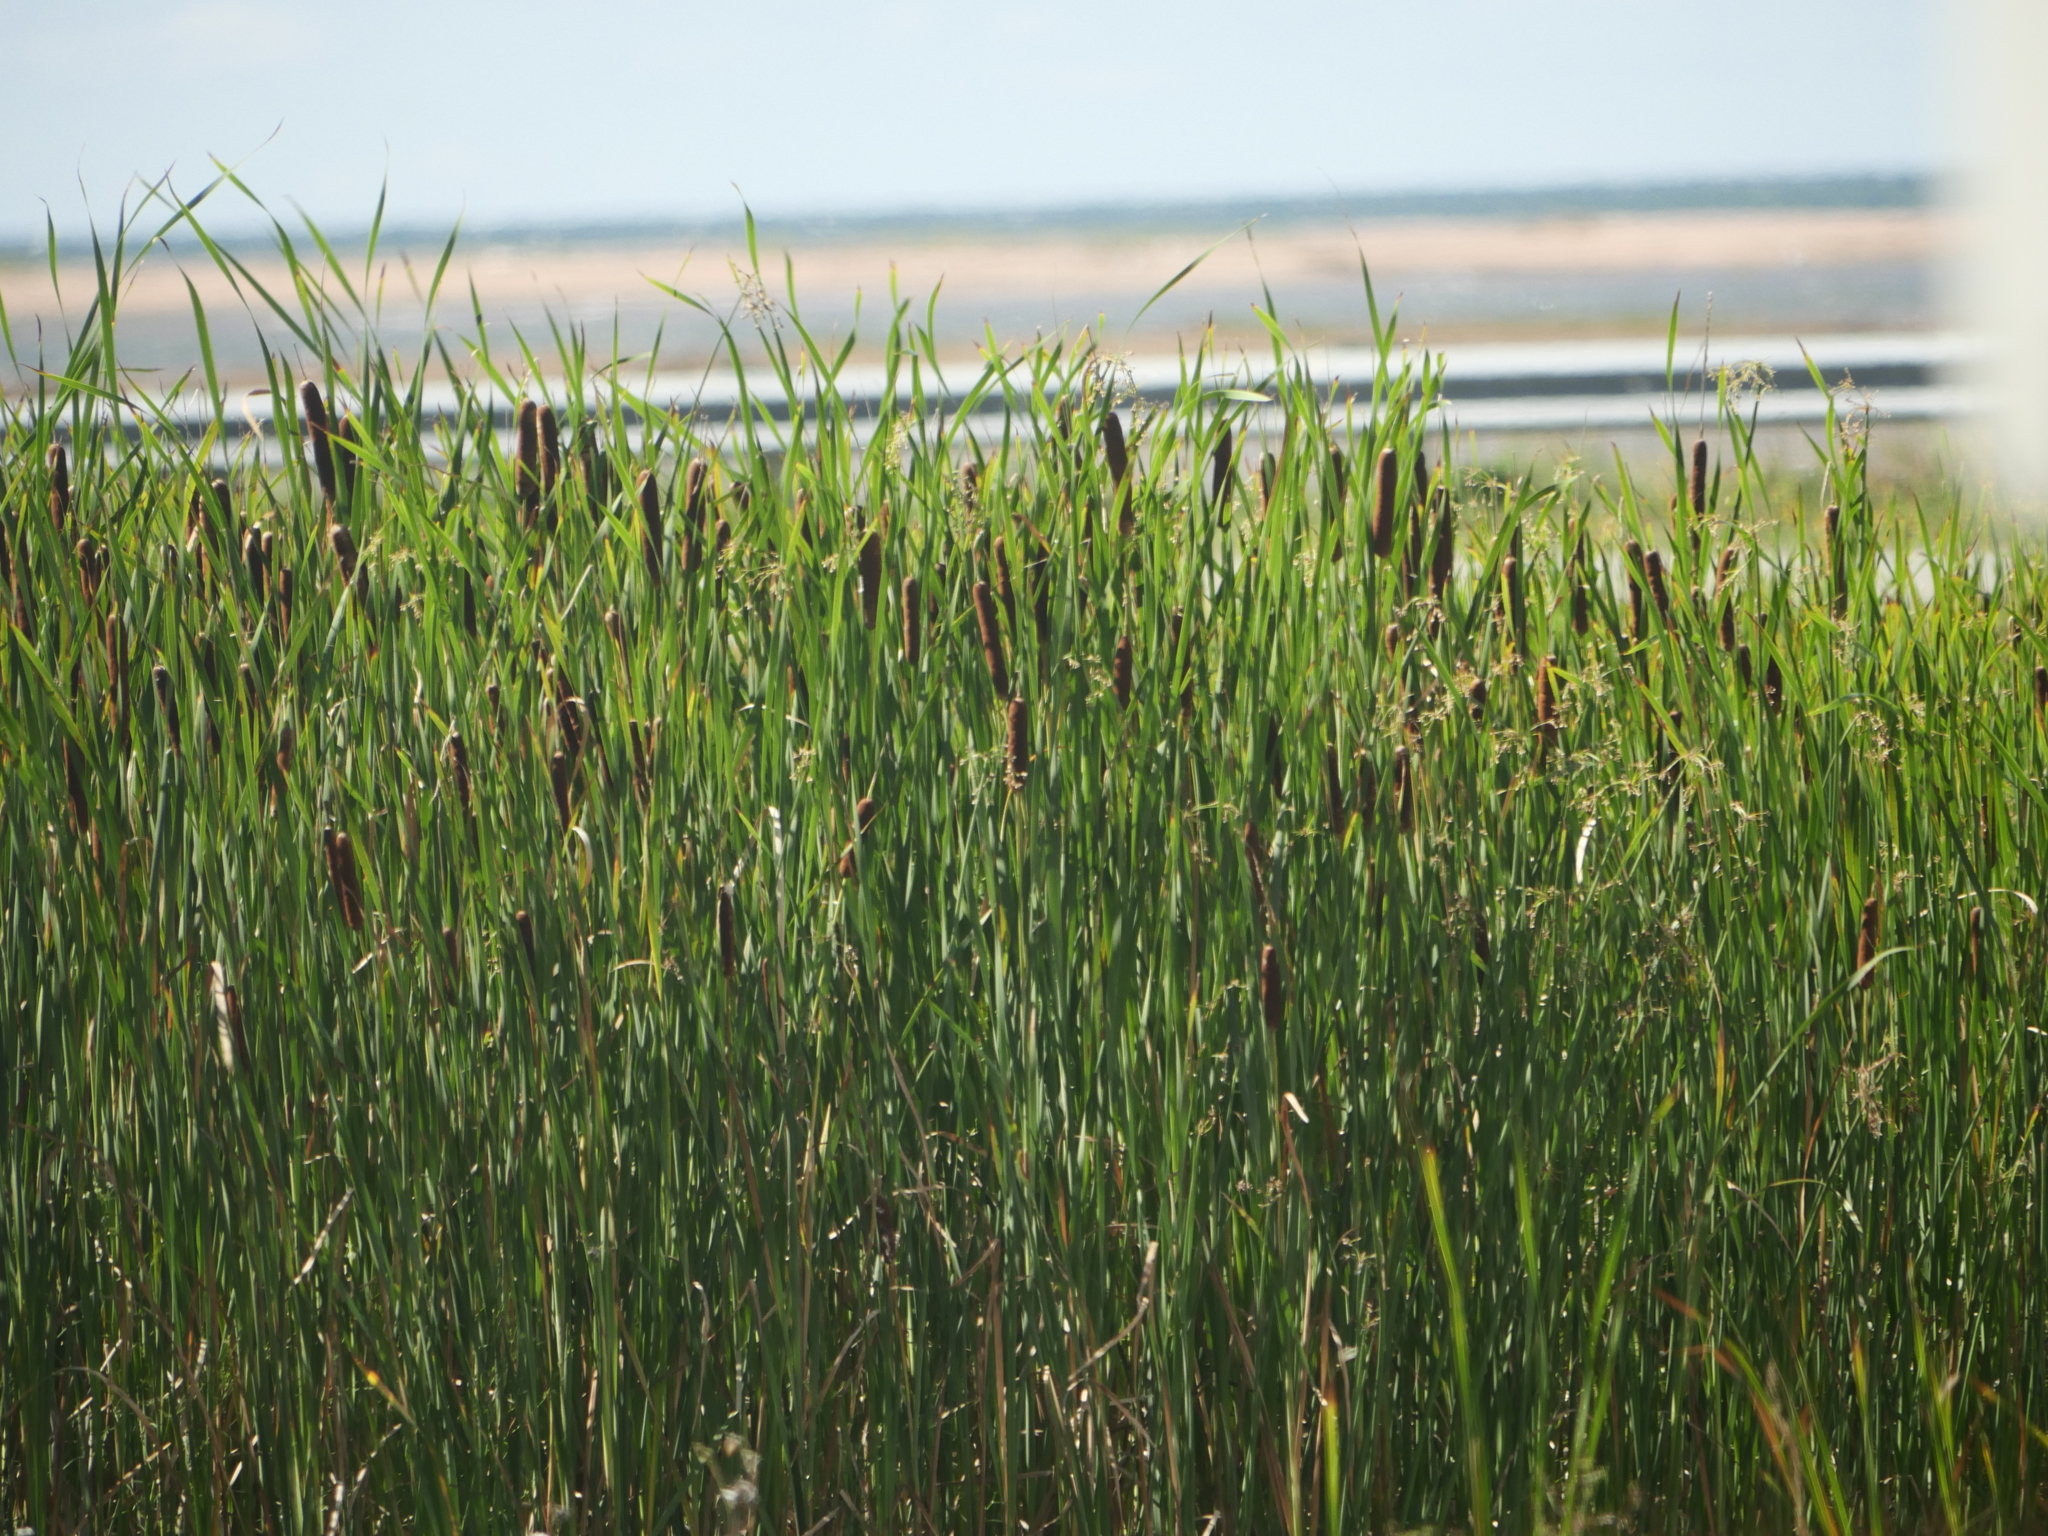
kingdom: Plantae
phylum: Tracheophyta
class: Liliopsida
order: Poales
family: Typhaceae
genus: Typha
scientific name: Typha latifolia
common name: Broadleaf cattail
